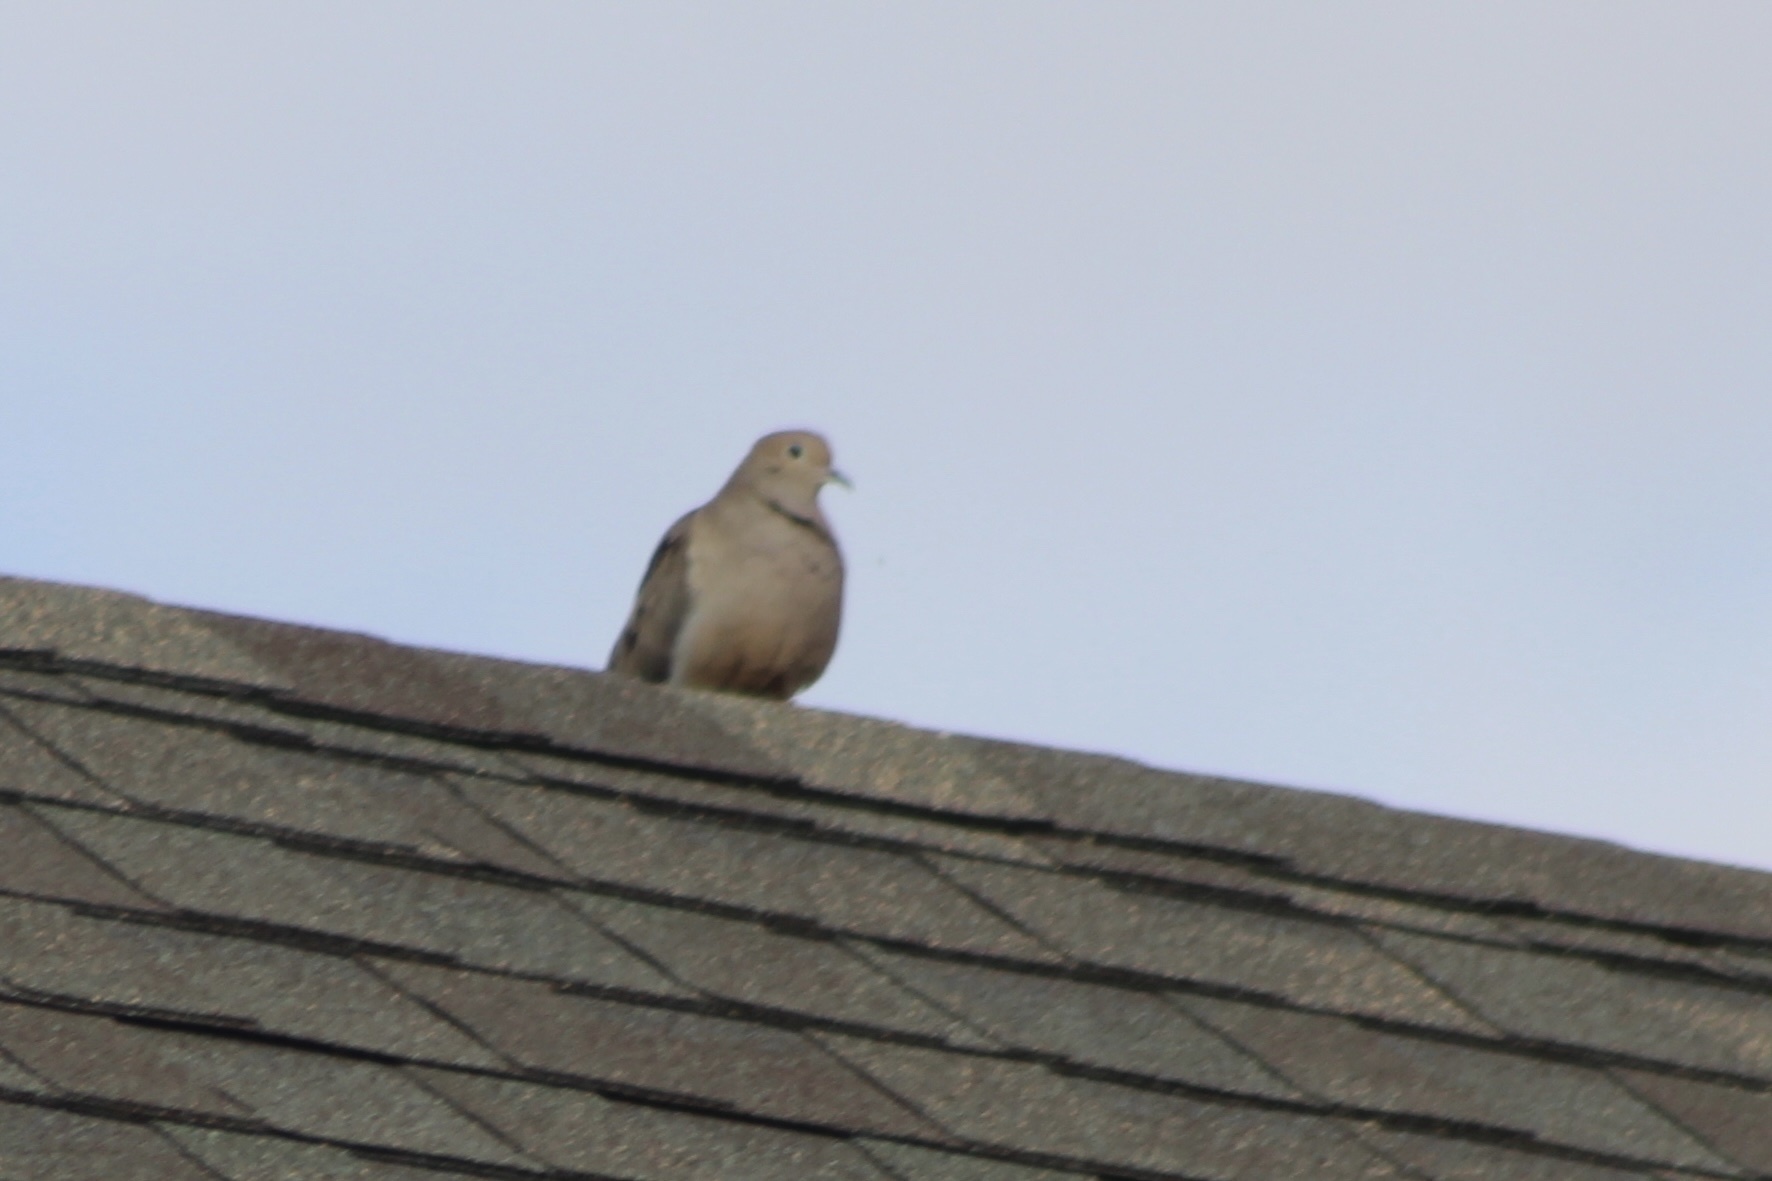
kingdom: Animalia
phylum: Chordata
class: Aves
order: Columbiformes
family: Columbidae
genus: Zenaida
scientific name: Zenaida macroura
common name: Mourning dove
